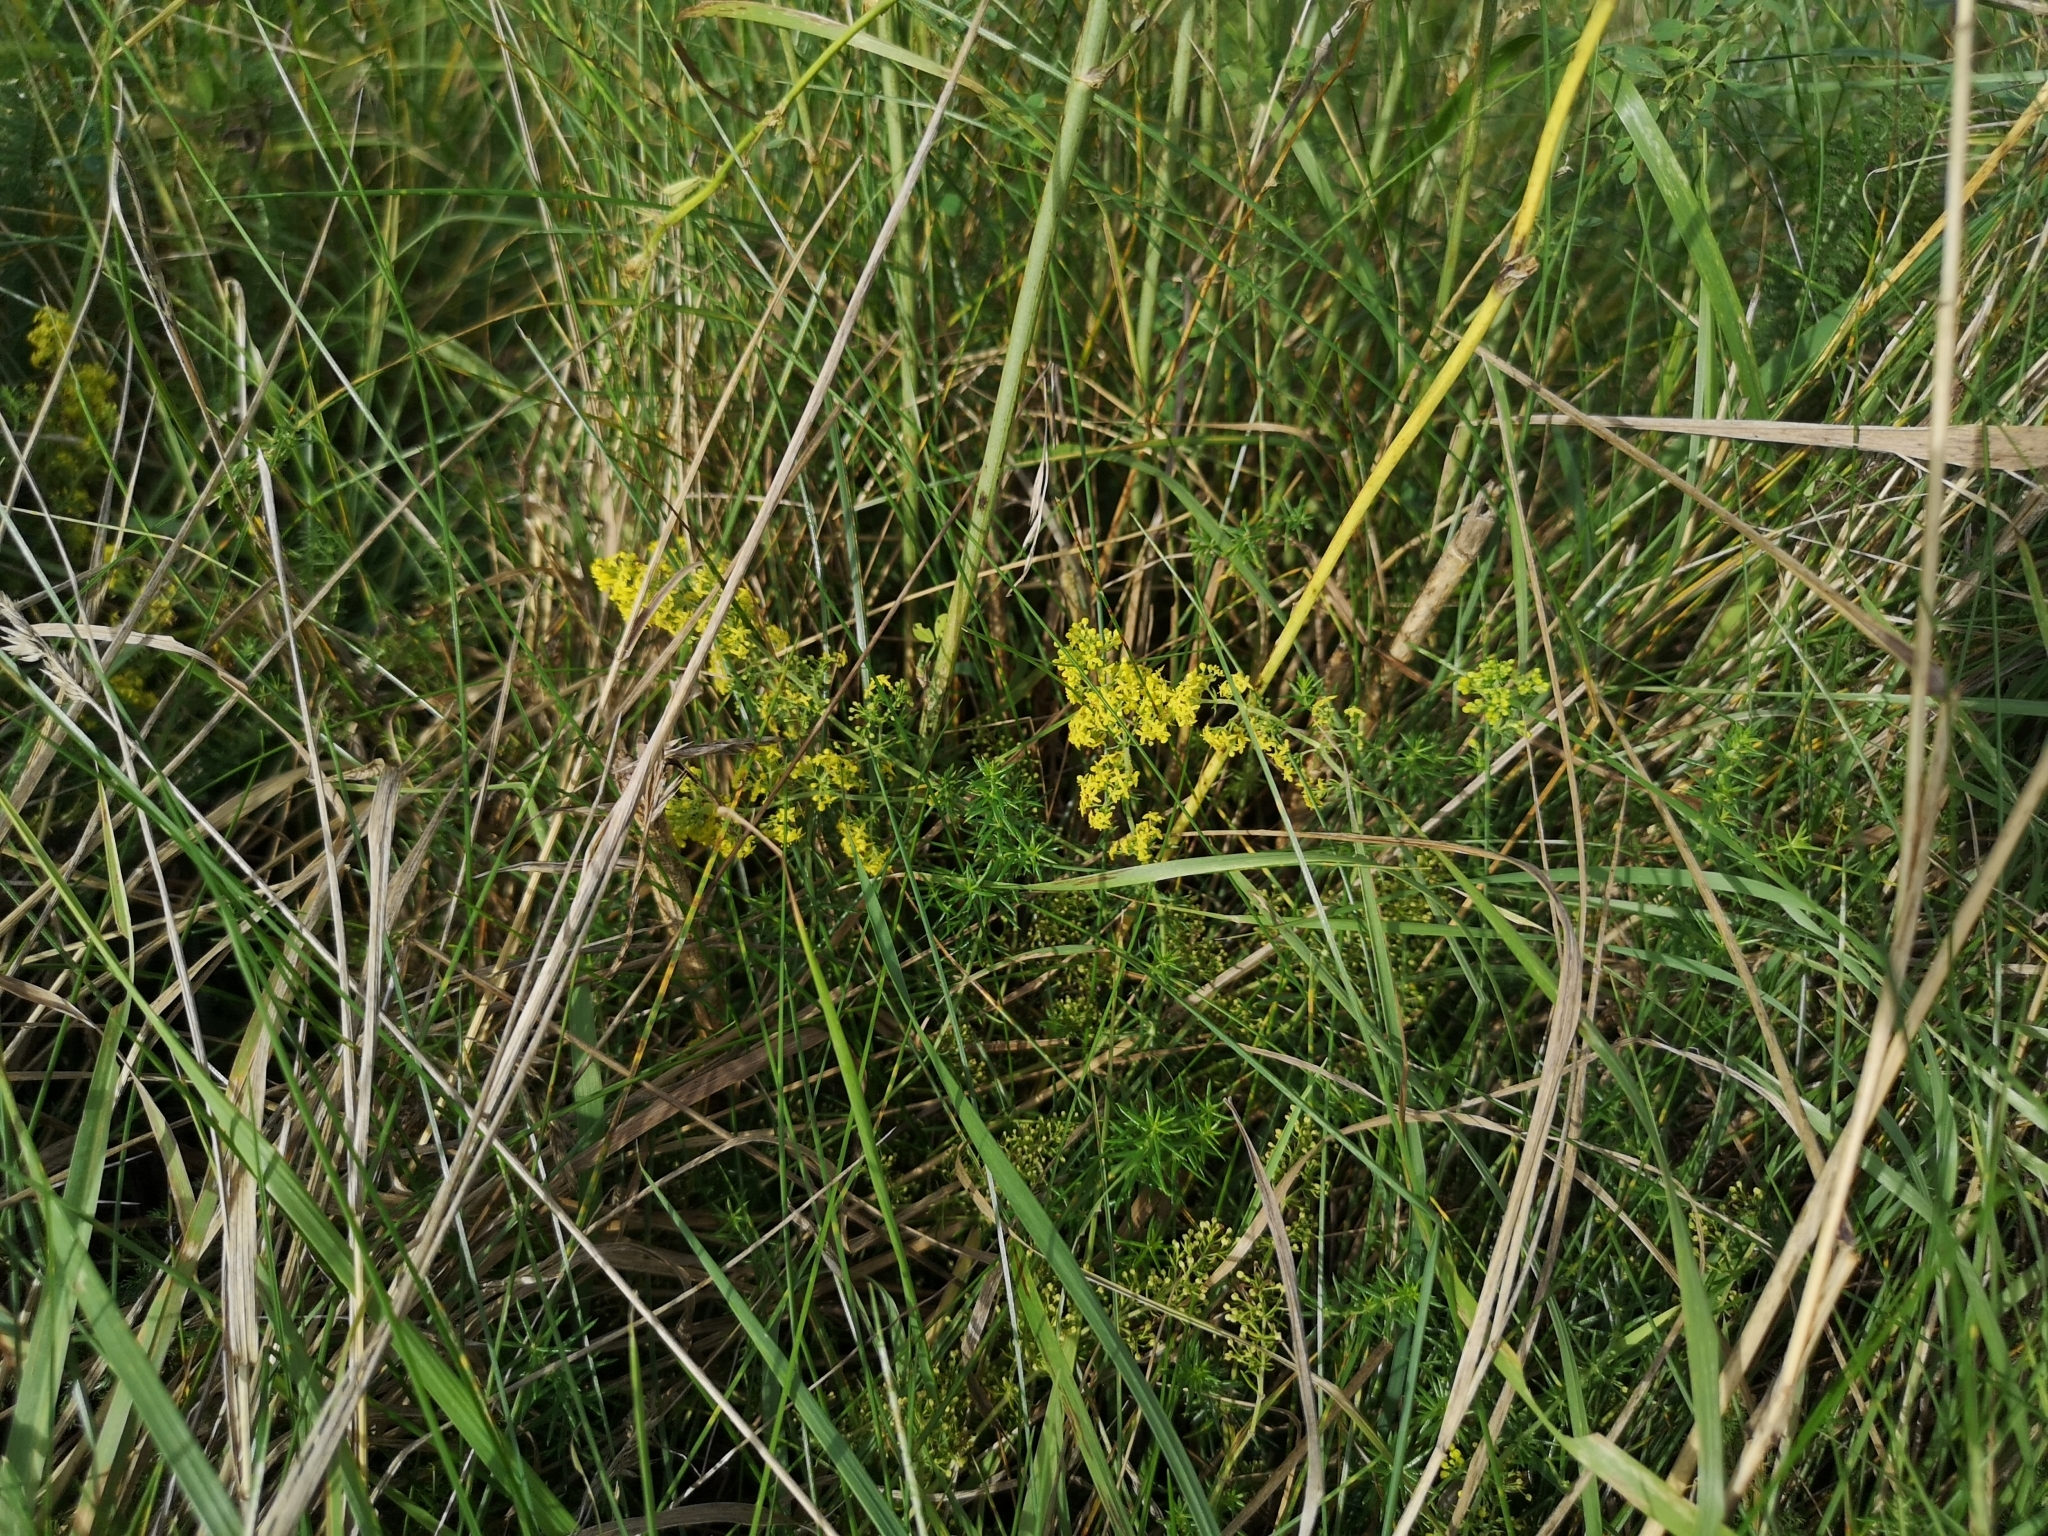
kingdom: Plantae
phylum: Tracheophyta
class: Magnoliopsida
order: Gentianales
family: Rubiaceae
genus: Galium
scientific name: Galium verum
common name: Lady's bedstraw
